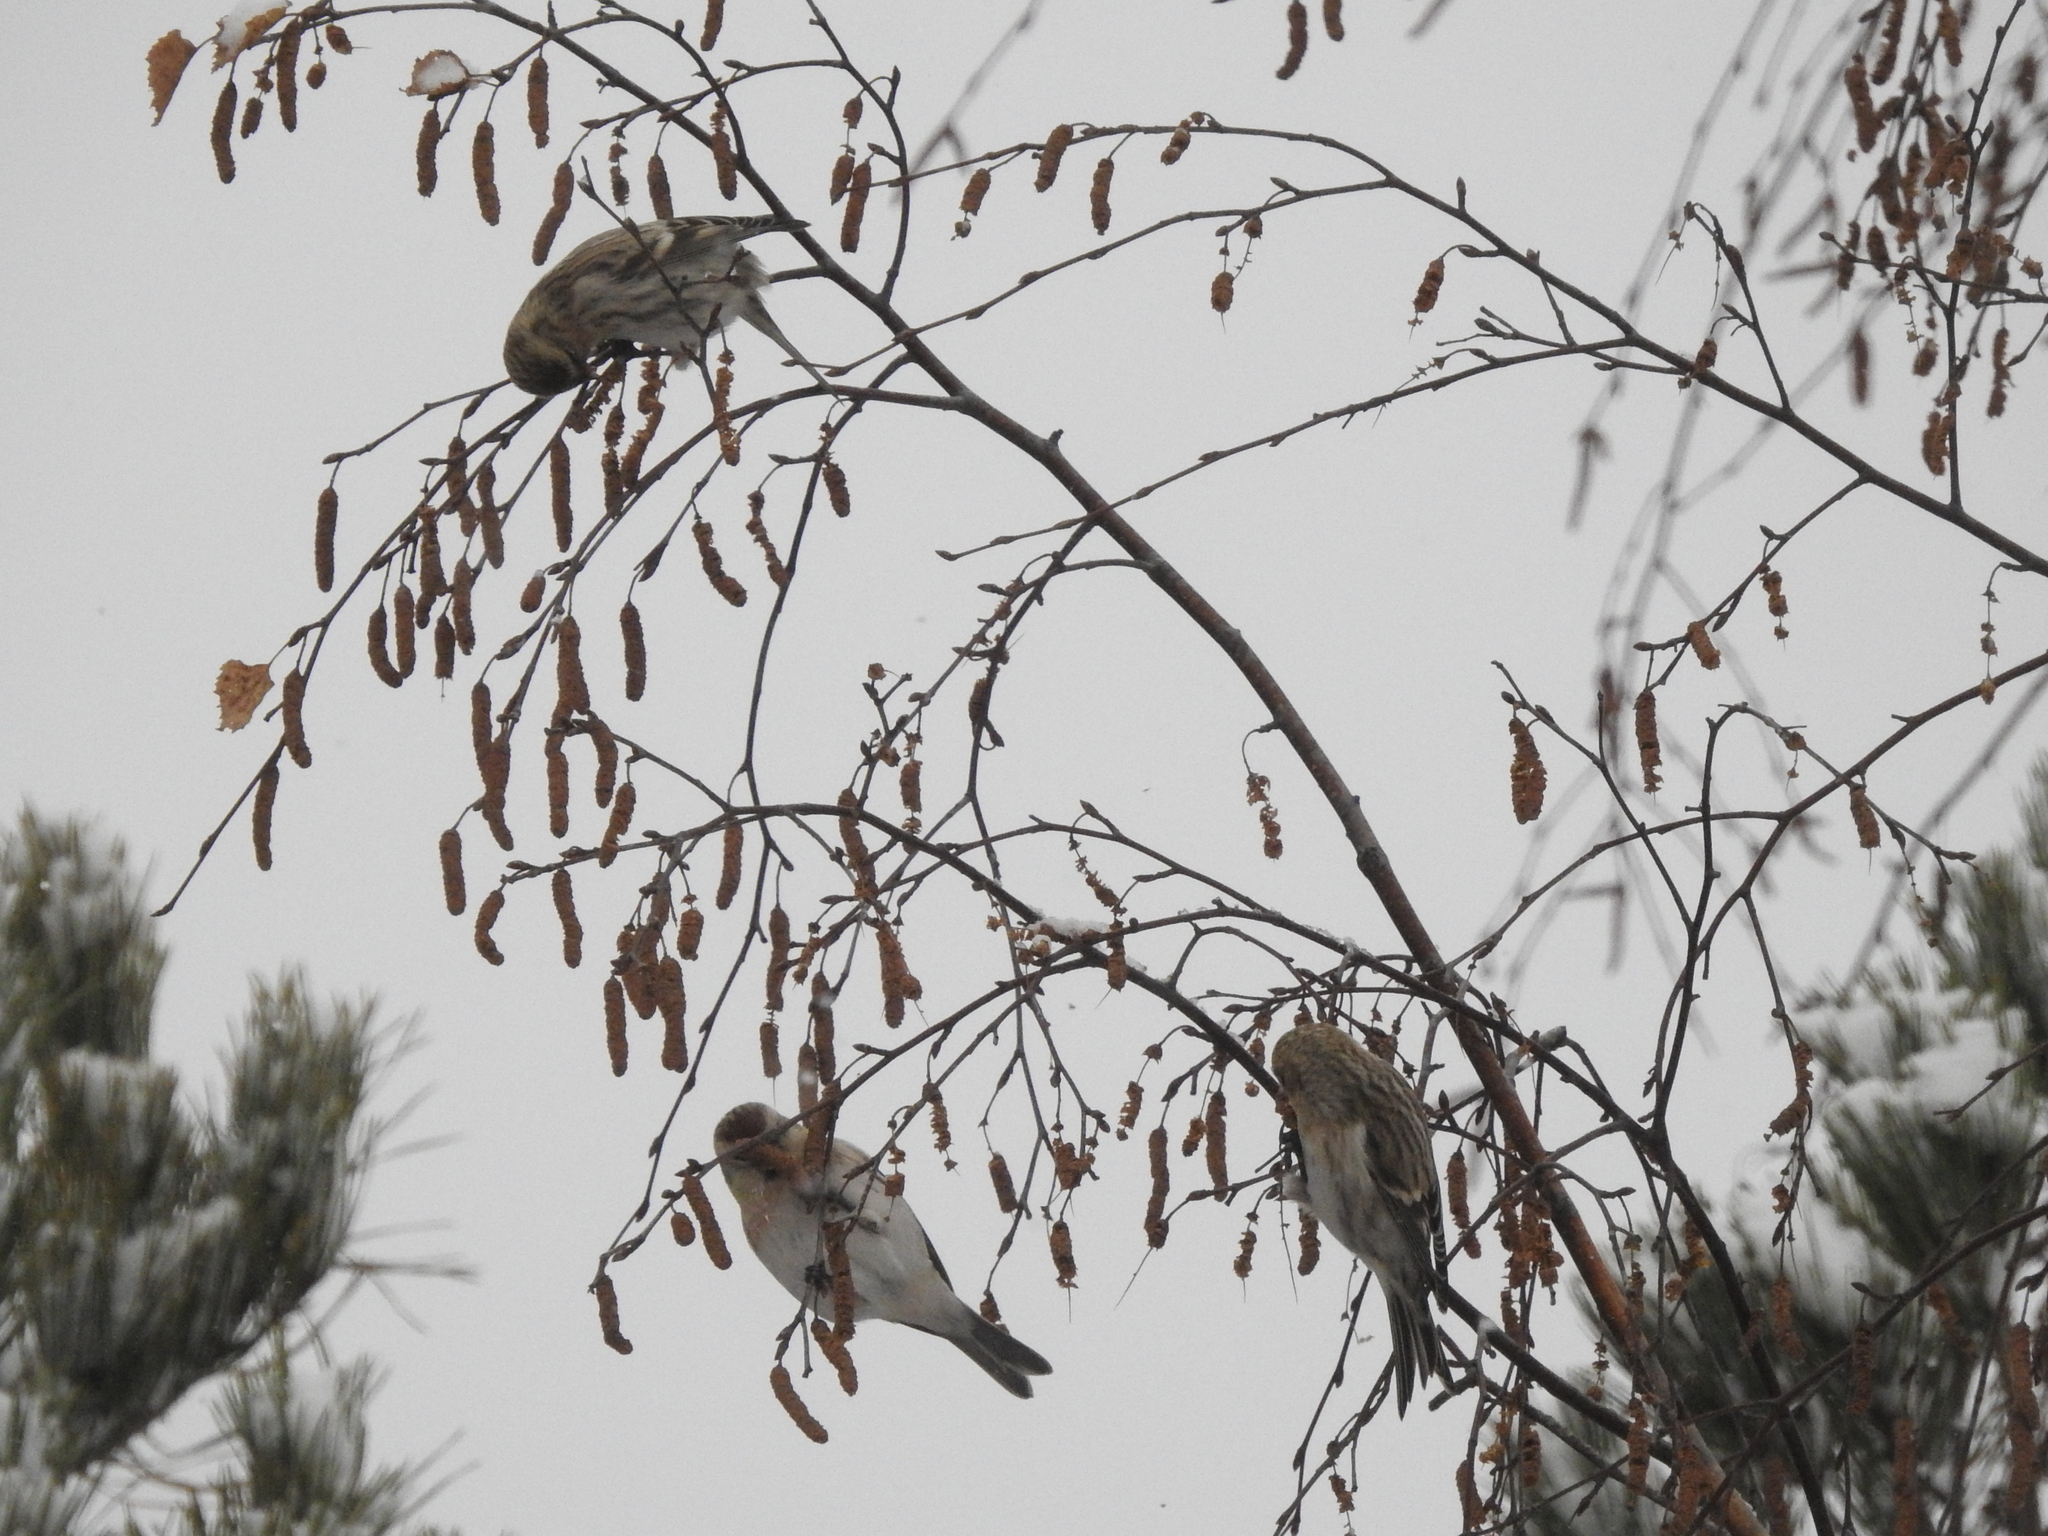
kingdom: Animalia
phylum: Chordata
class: Aves
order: Passeriformes
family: Fringillidae
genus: Acanthis
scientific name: Acanthis flammea
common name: Common redpoll
